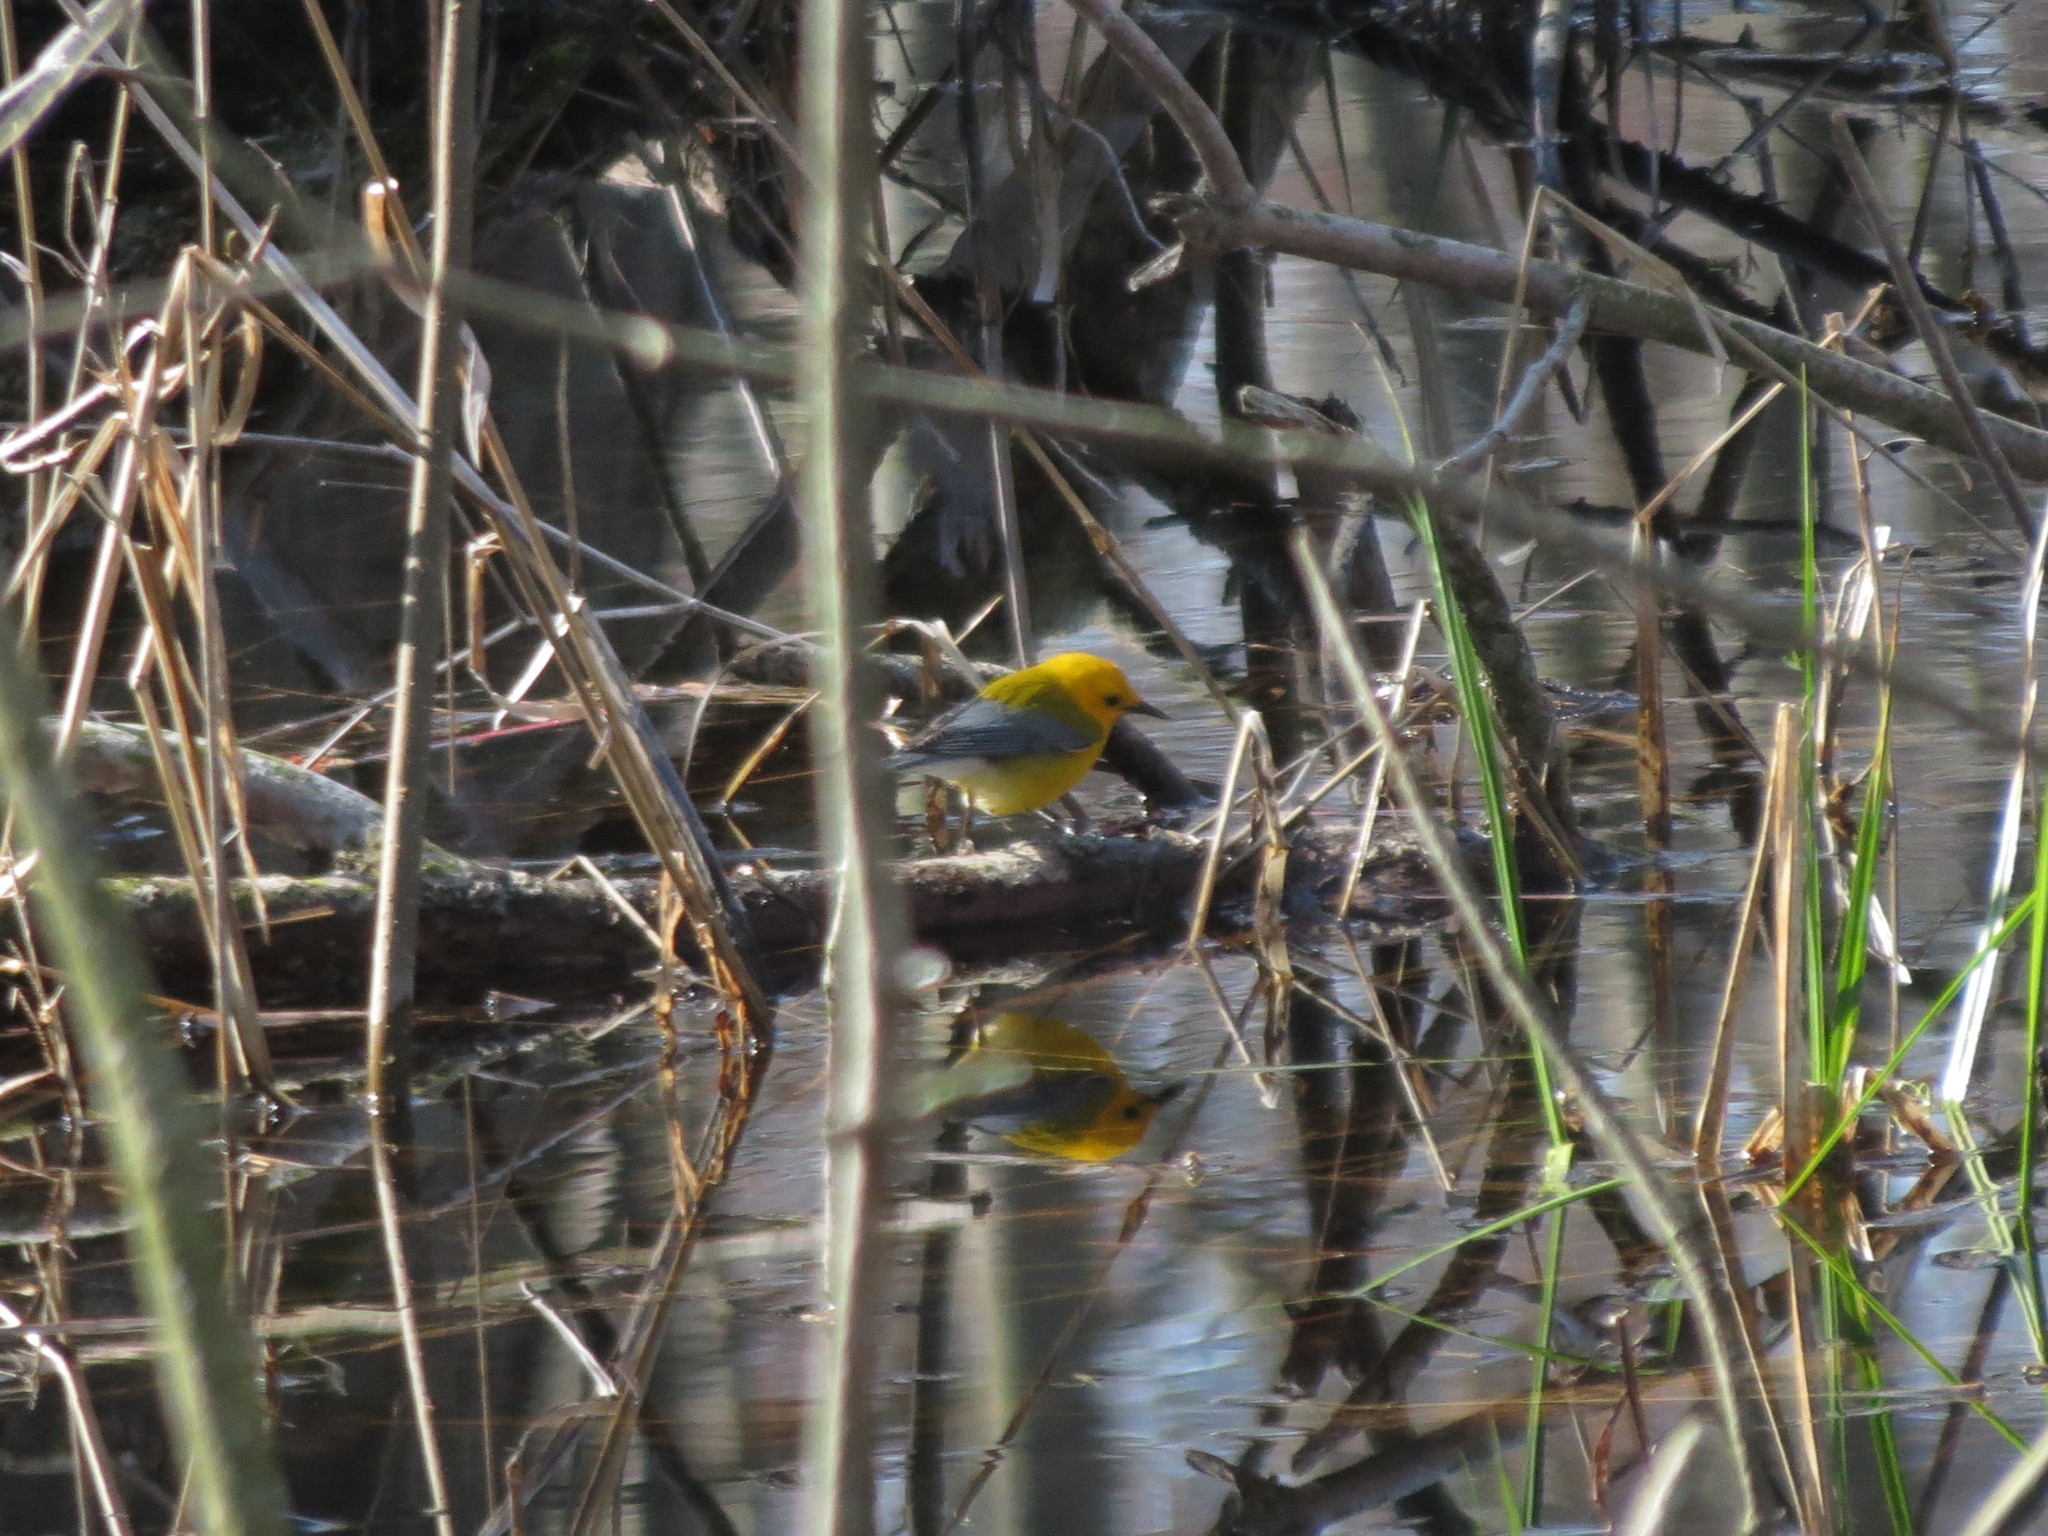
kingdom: Animalia
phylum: Chordata
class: Aves
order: Passeriformes
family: Parulidae
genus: Protonotaria
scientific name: Protonotaria citrea
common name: Prothonotary warbler
